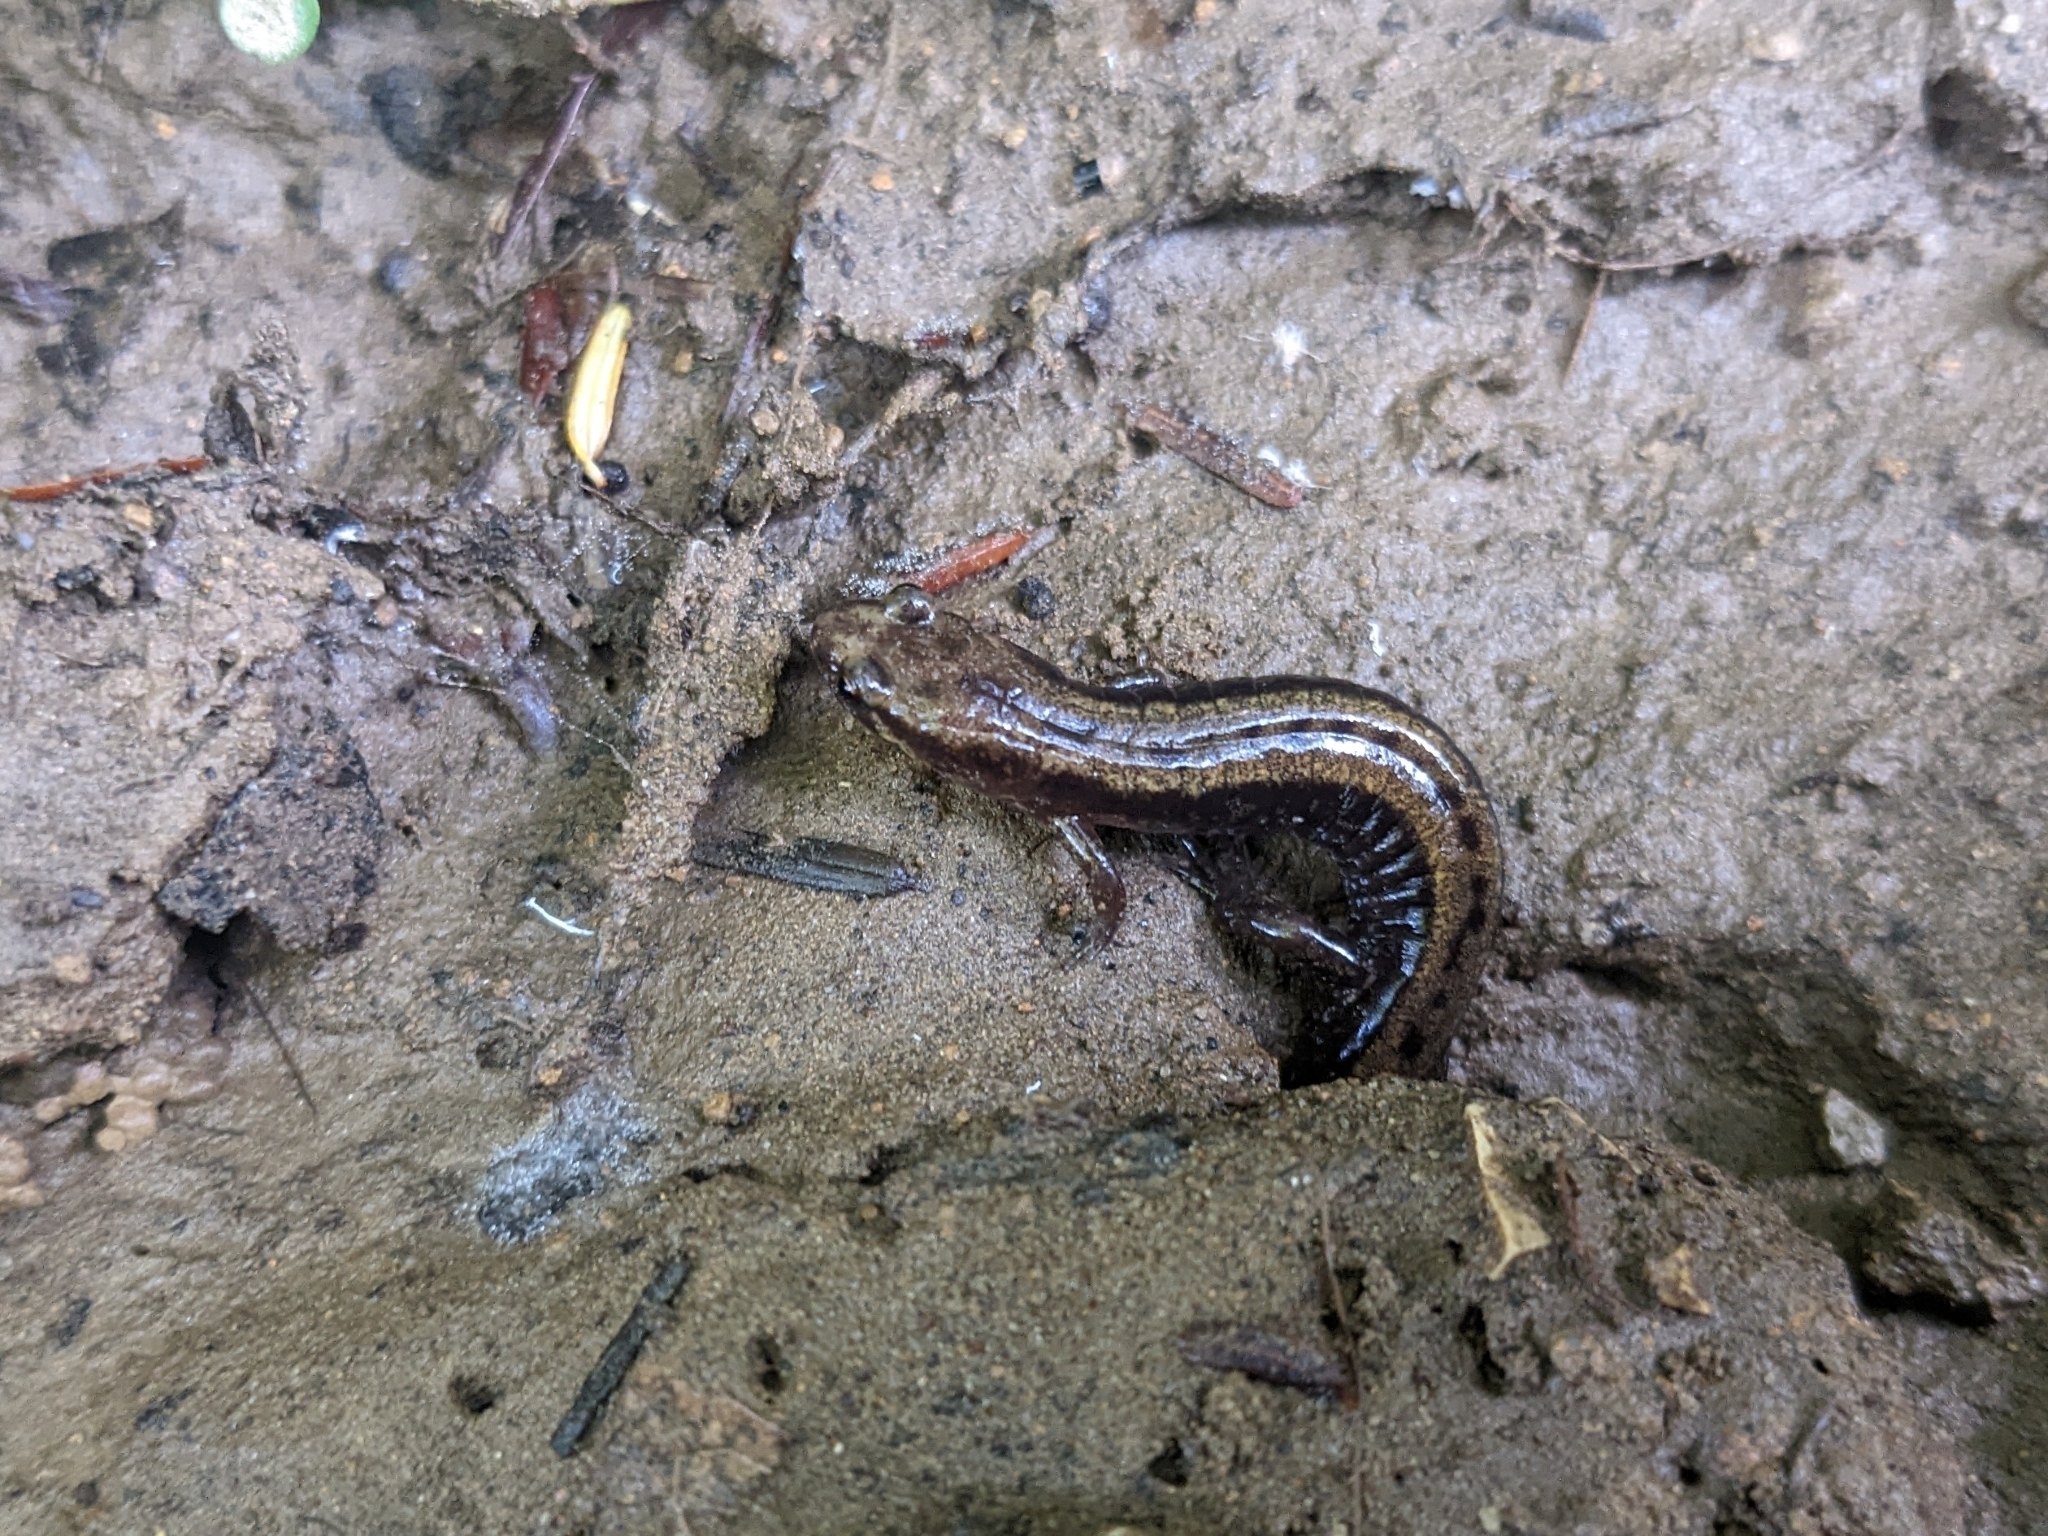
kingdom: Animalia
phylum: Chordata
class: Amphibia
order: Caudata
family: Plethodontidae
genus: Desmognathus
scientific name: Desmognathus ochrophaeus
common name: Allegheny mountain dusky salamander
